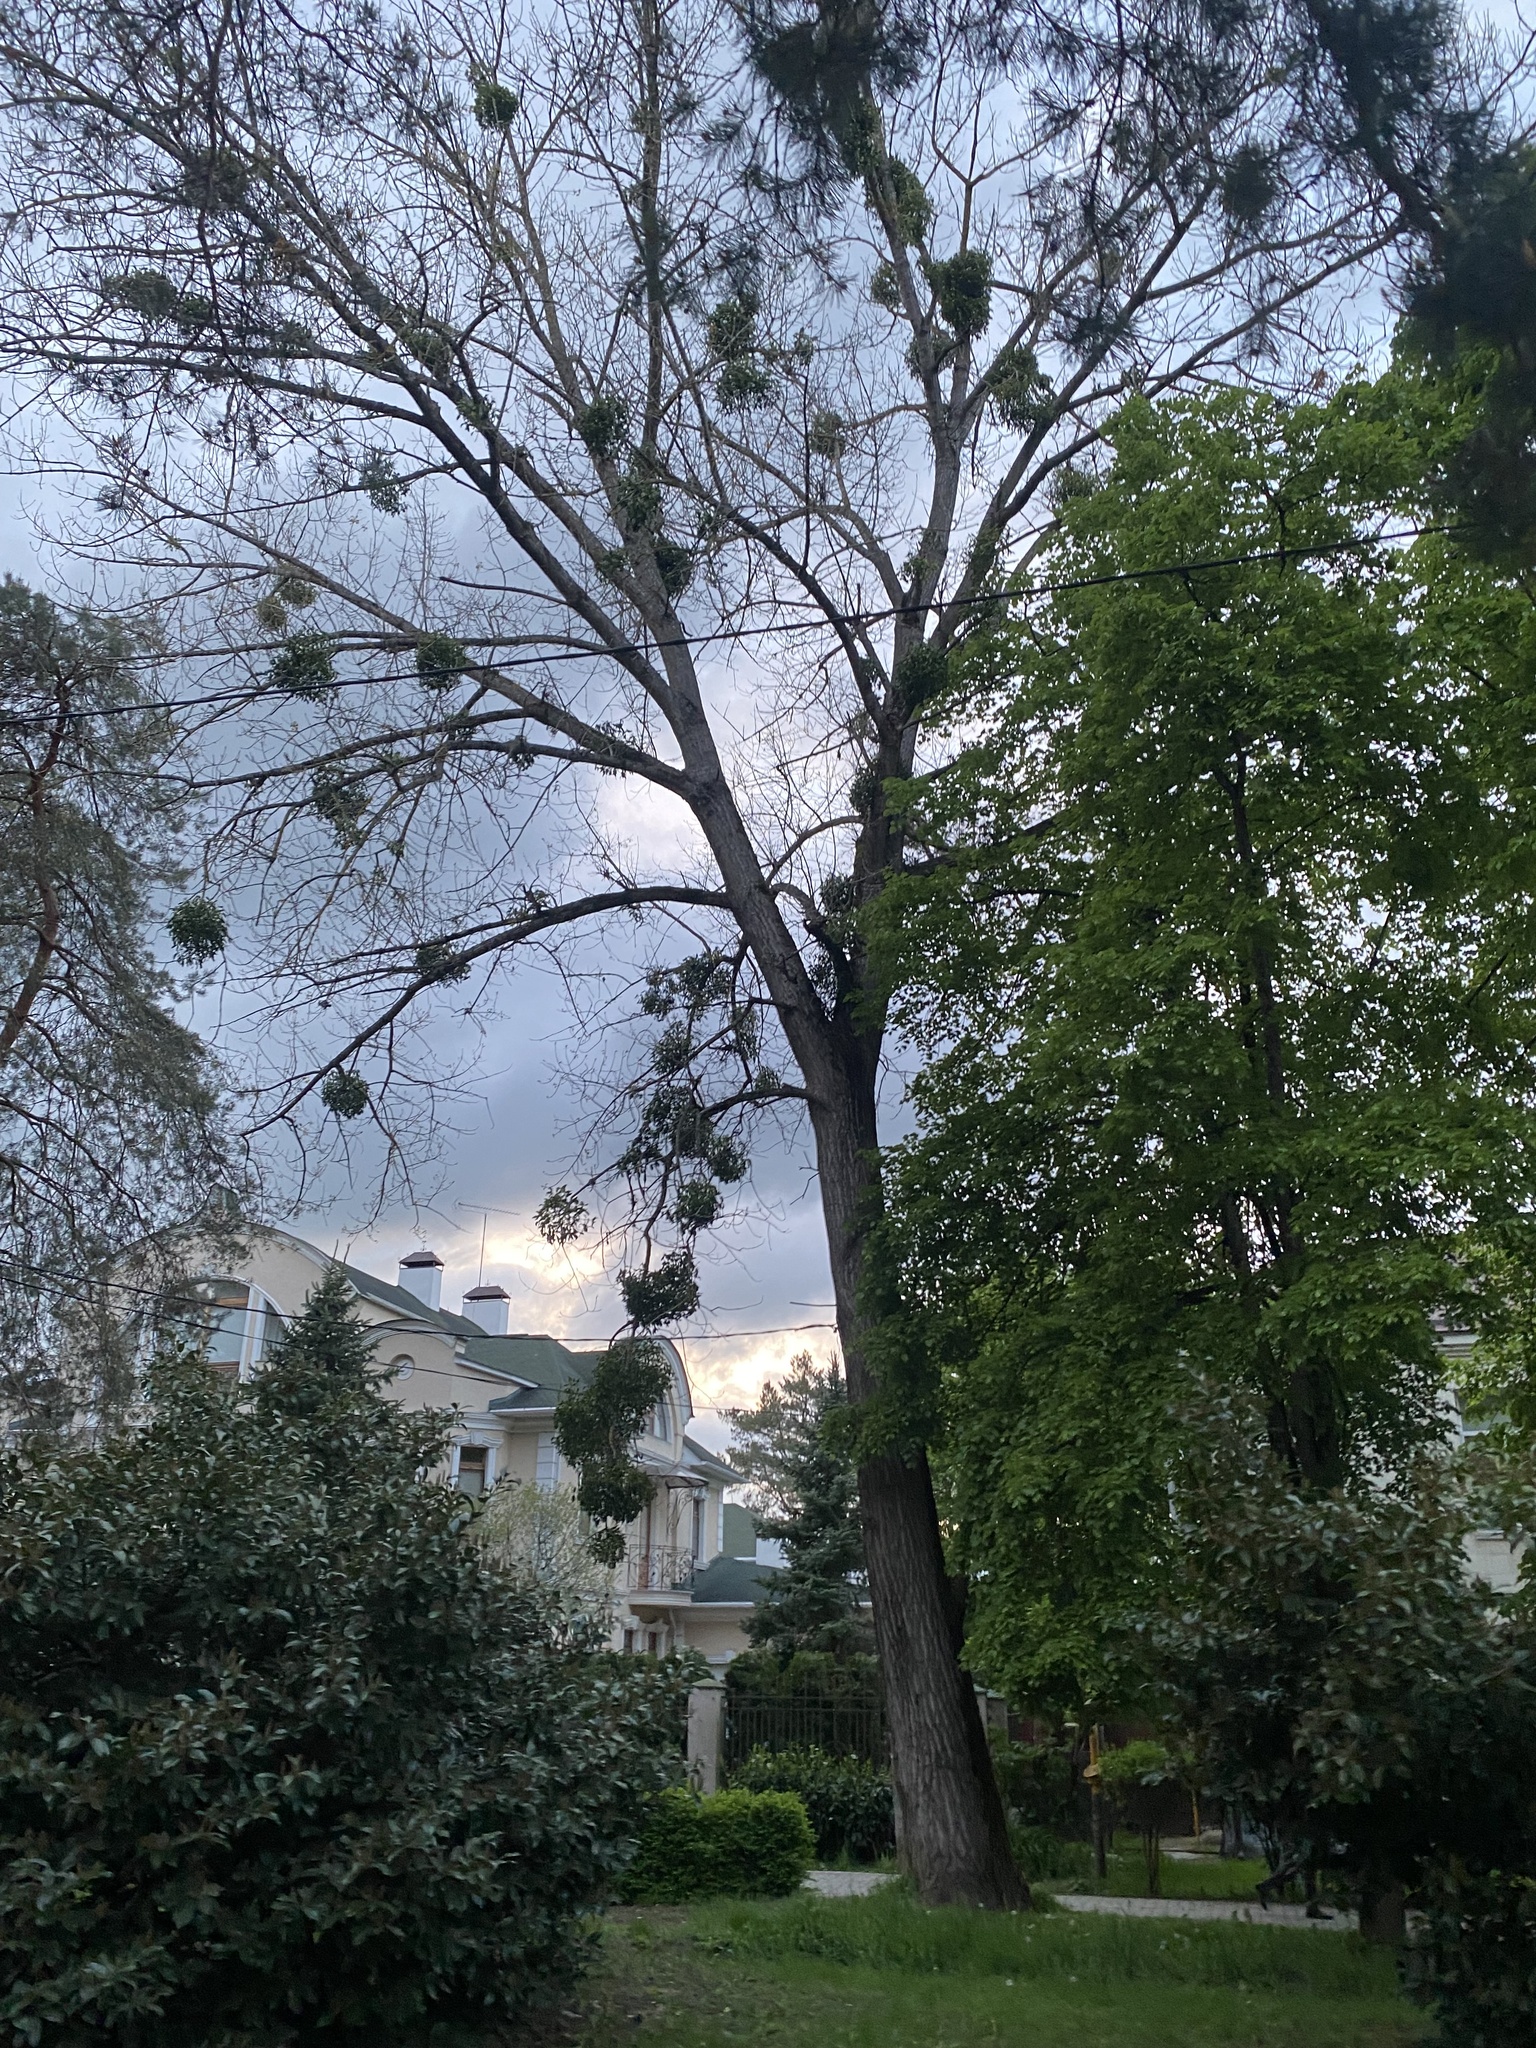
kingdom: Plantae
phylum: Tracheophyta
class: Magnoliopsida
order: Santalales
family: Viscaceae
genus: Viscum
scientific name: Viscum album
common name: Mistletoe
